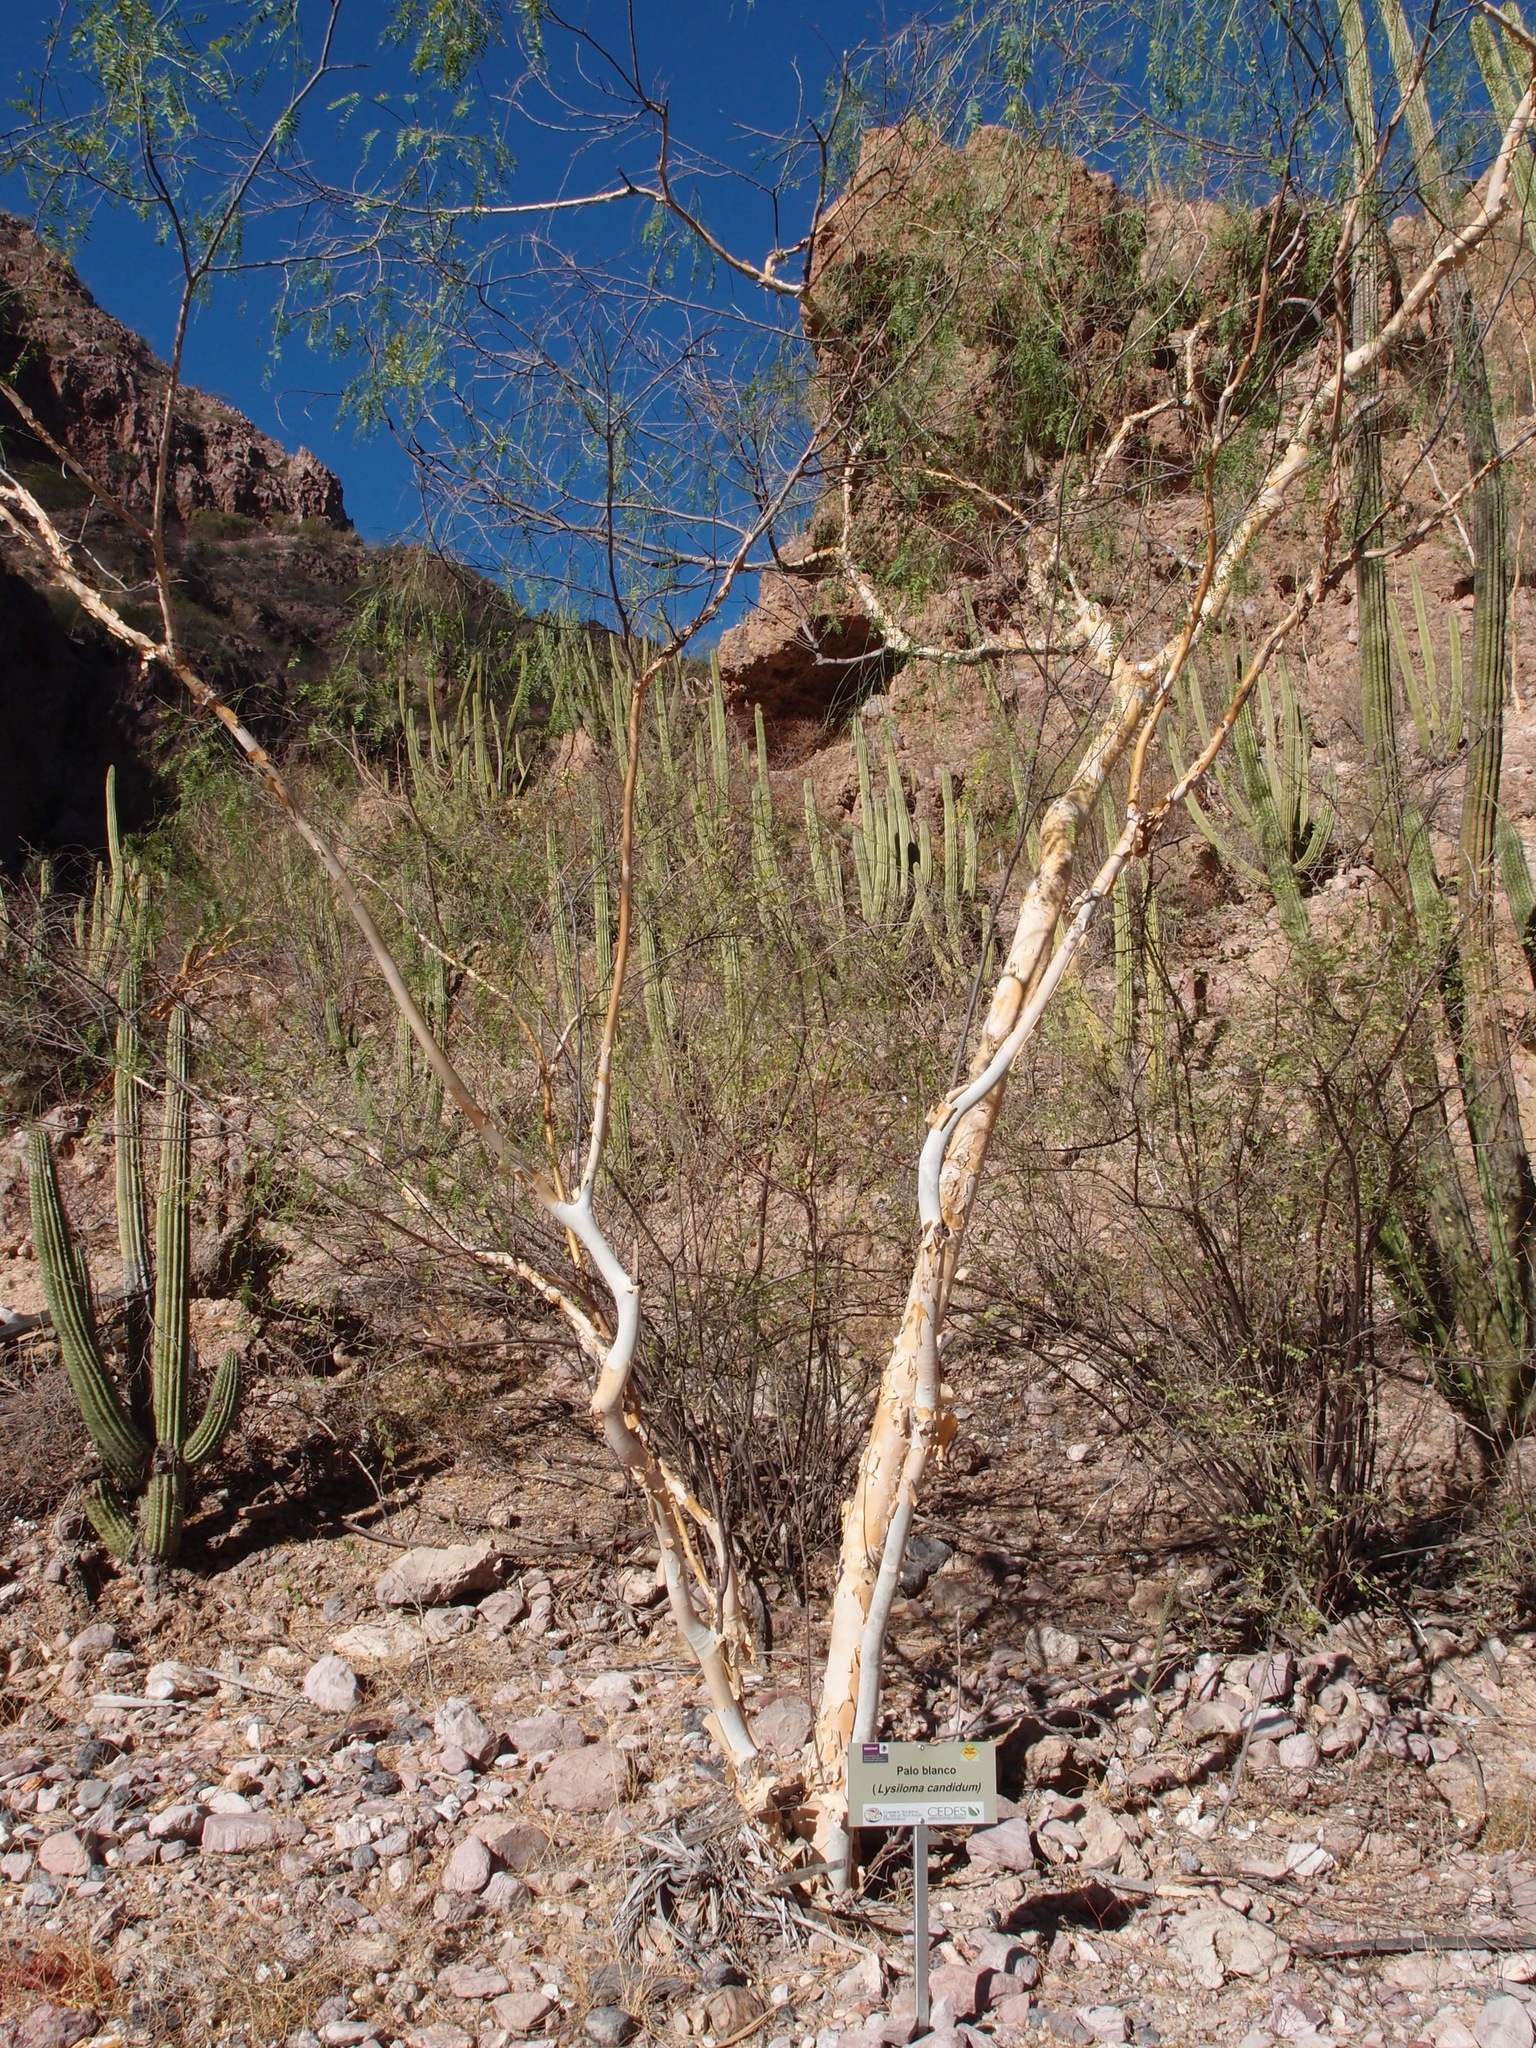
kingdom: Plantae
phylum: Tracheophyta
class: Magnoliopsida
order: Fabales
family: Fabaceae
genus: Mariosousa
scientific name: Mariosousa heterophylla
